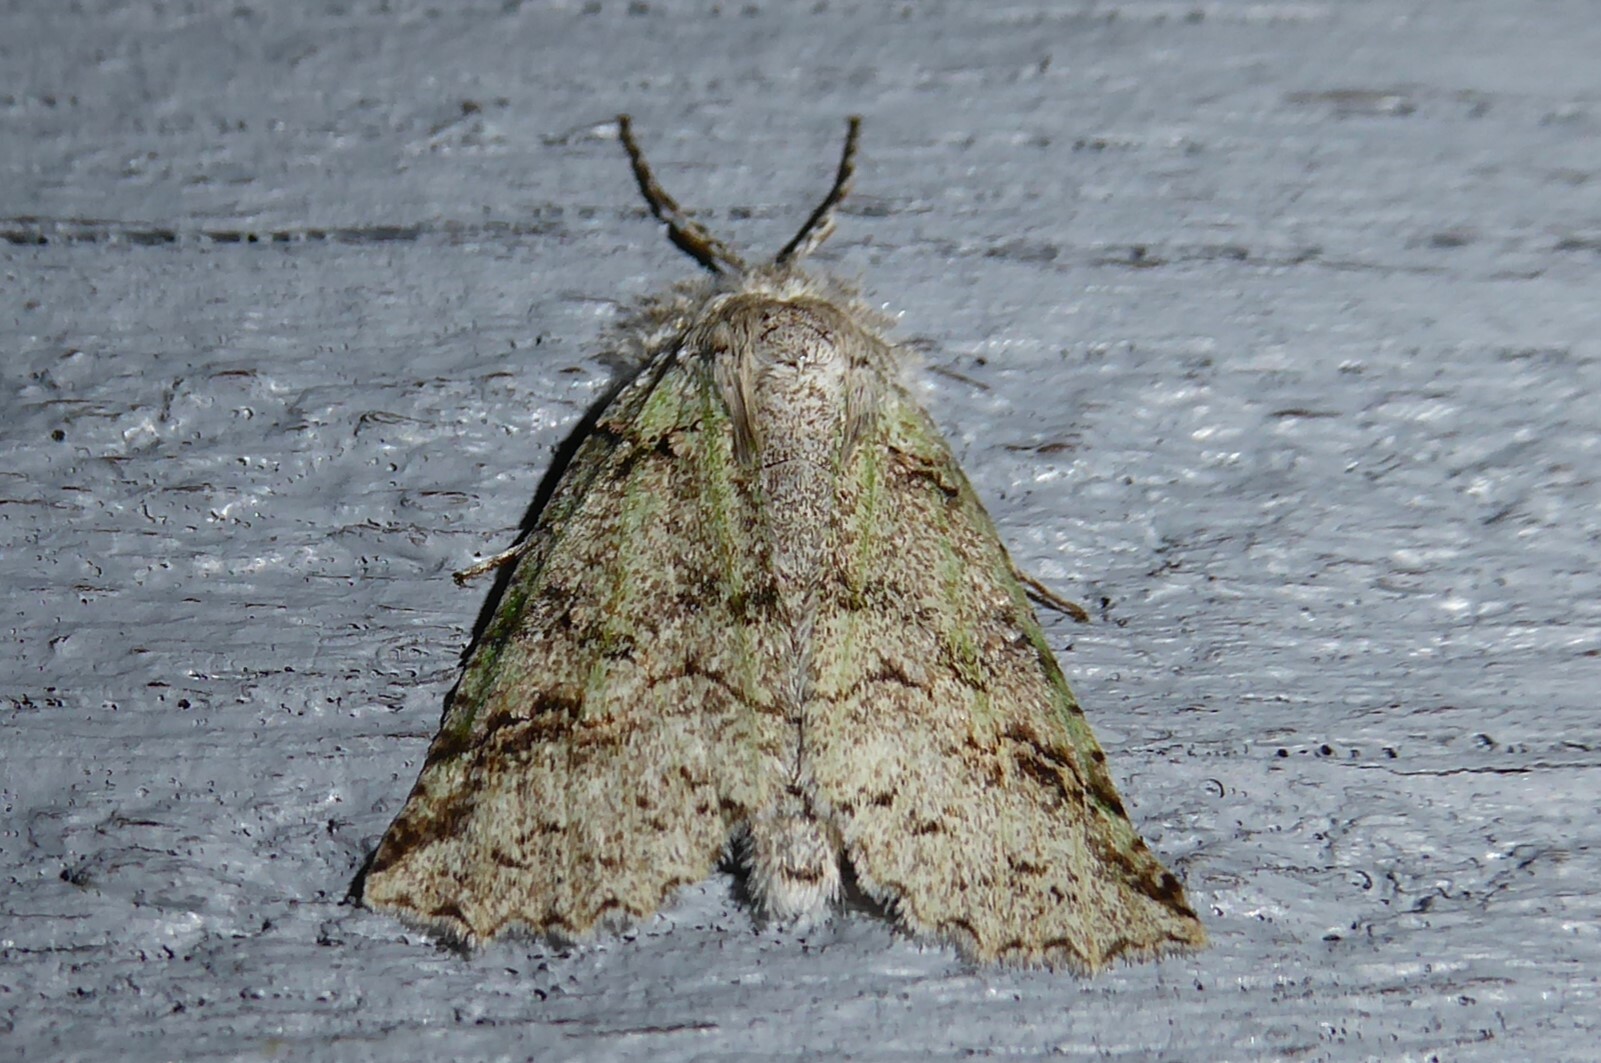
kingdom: Animalia
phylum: Arthropoda
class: Insecta
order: Lepidoptera
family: Geometridae
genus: Declana
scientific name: Declana floccosa
